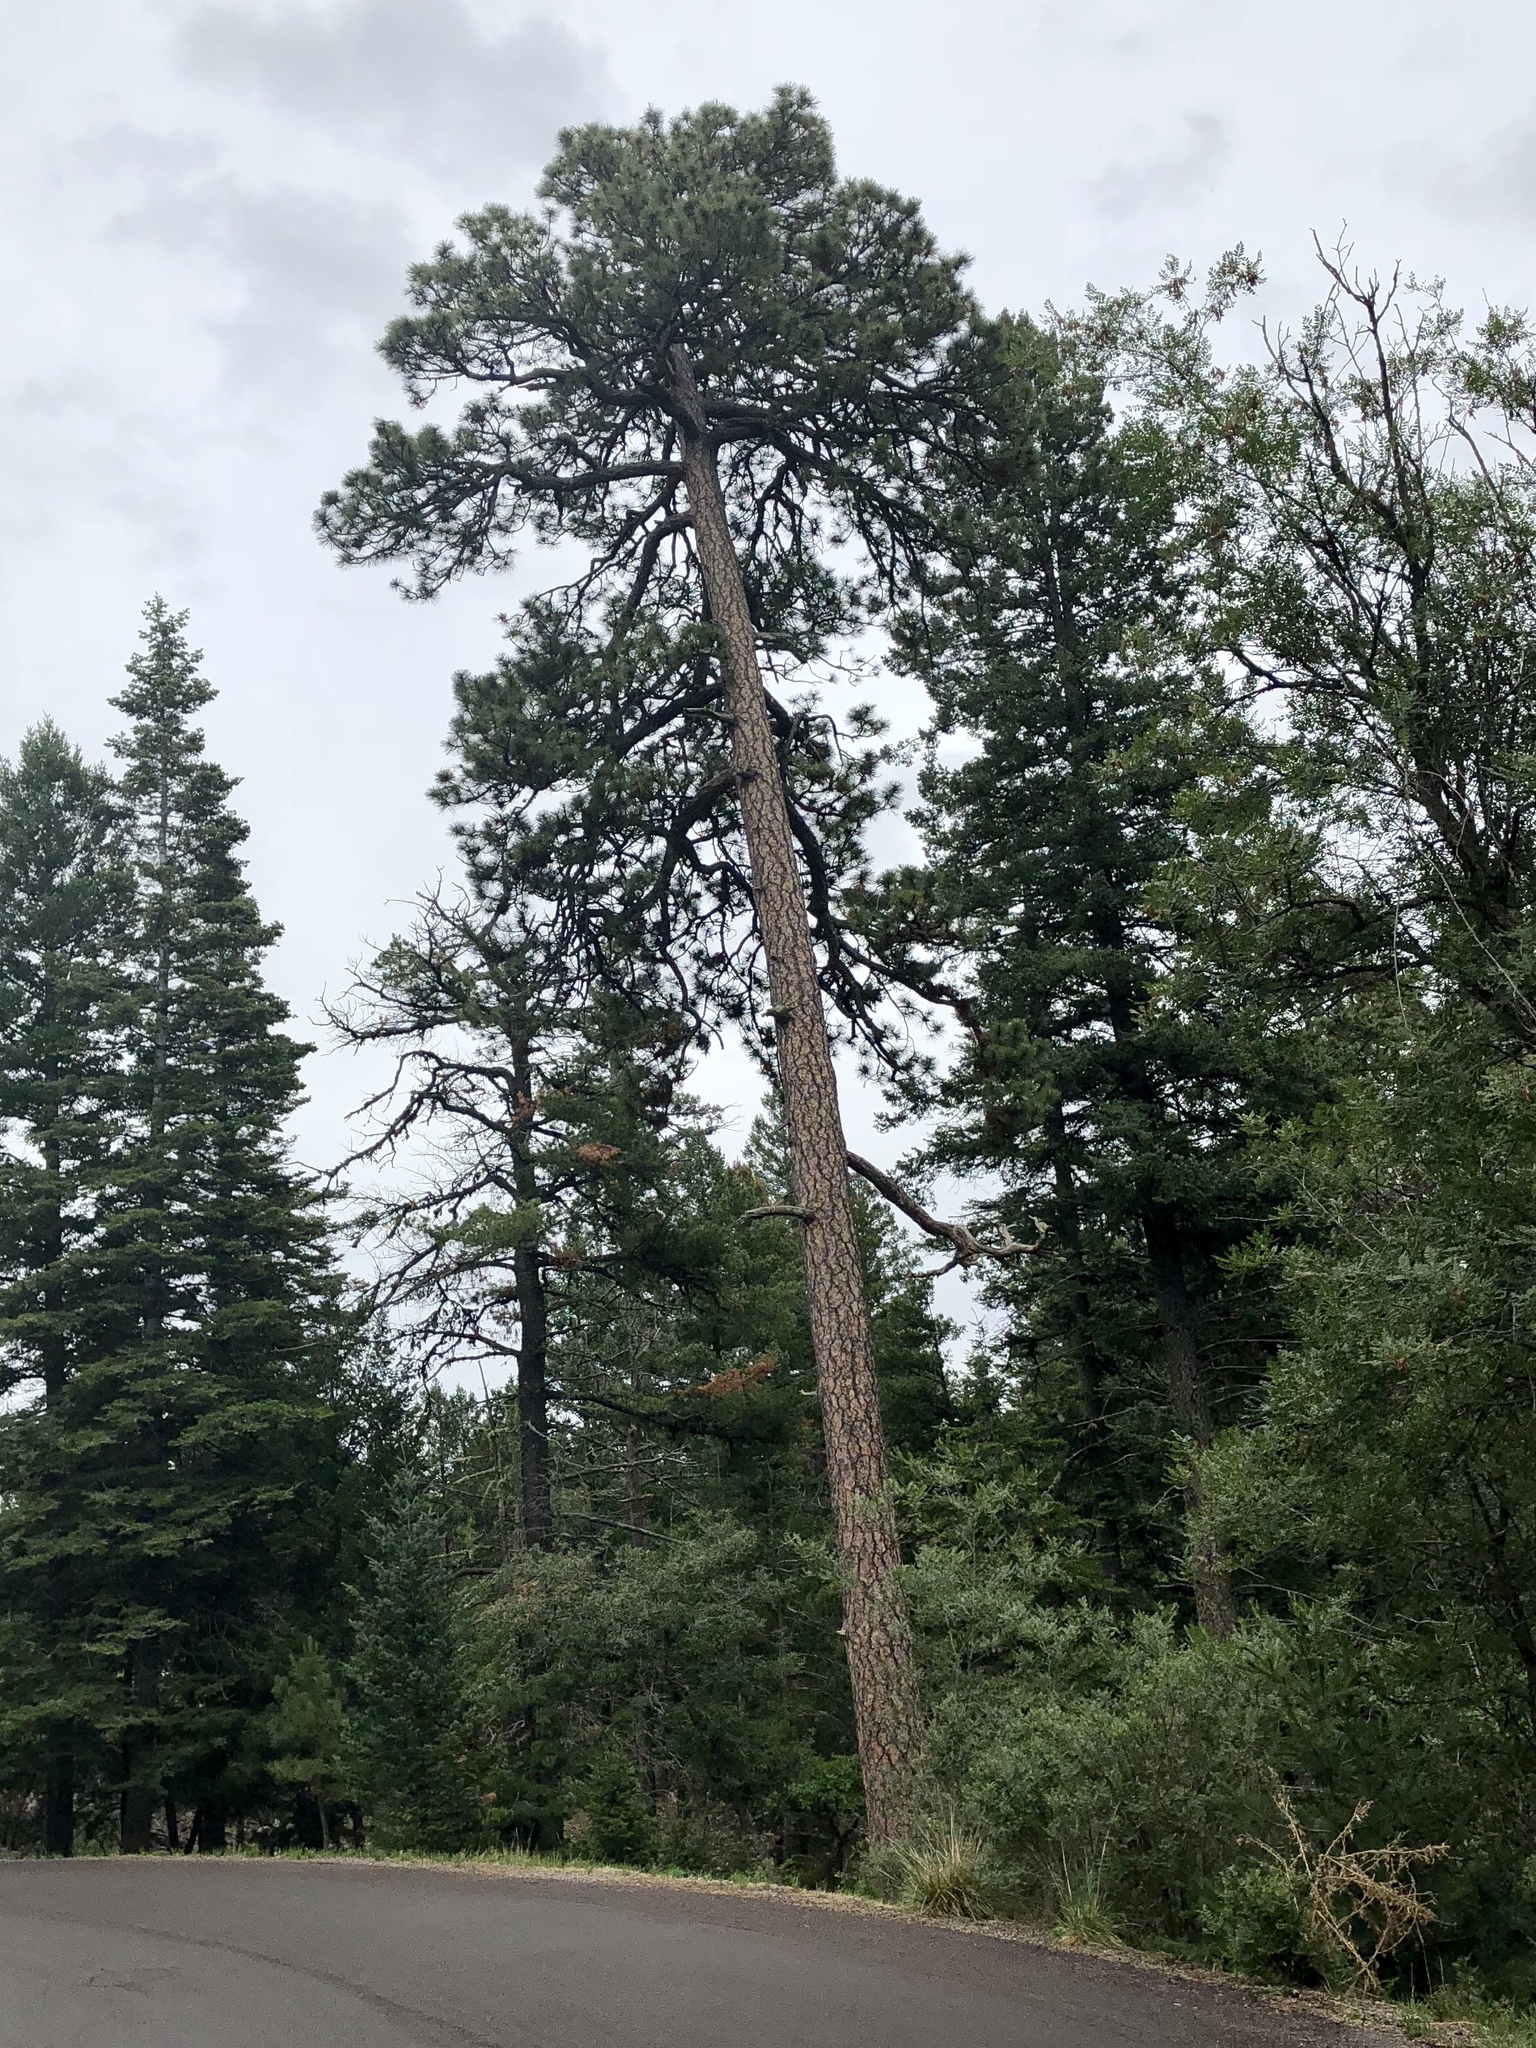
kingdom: Plantae
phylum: Tracheophyta
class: Pinopsida
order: Pinales
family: Pinaceae
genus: Pinus
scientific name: Pinus ponderosa
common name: Western yellow-pine
